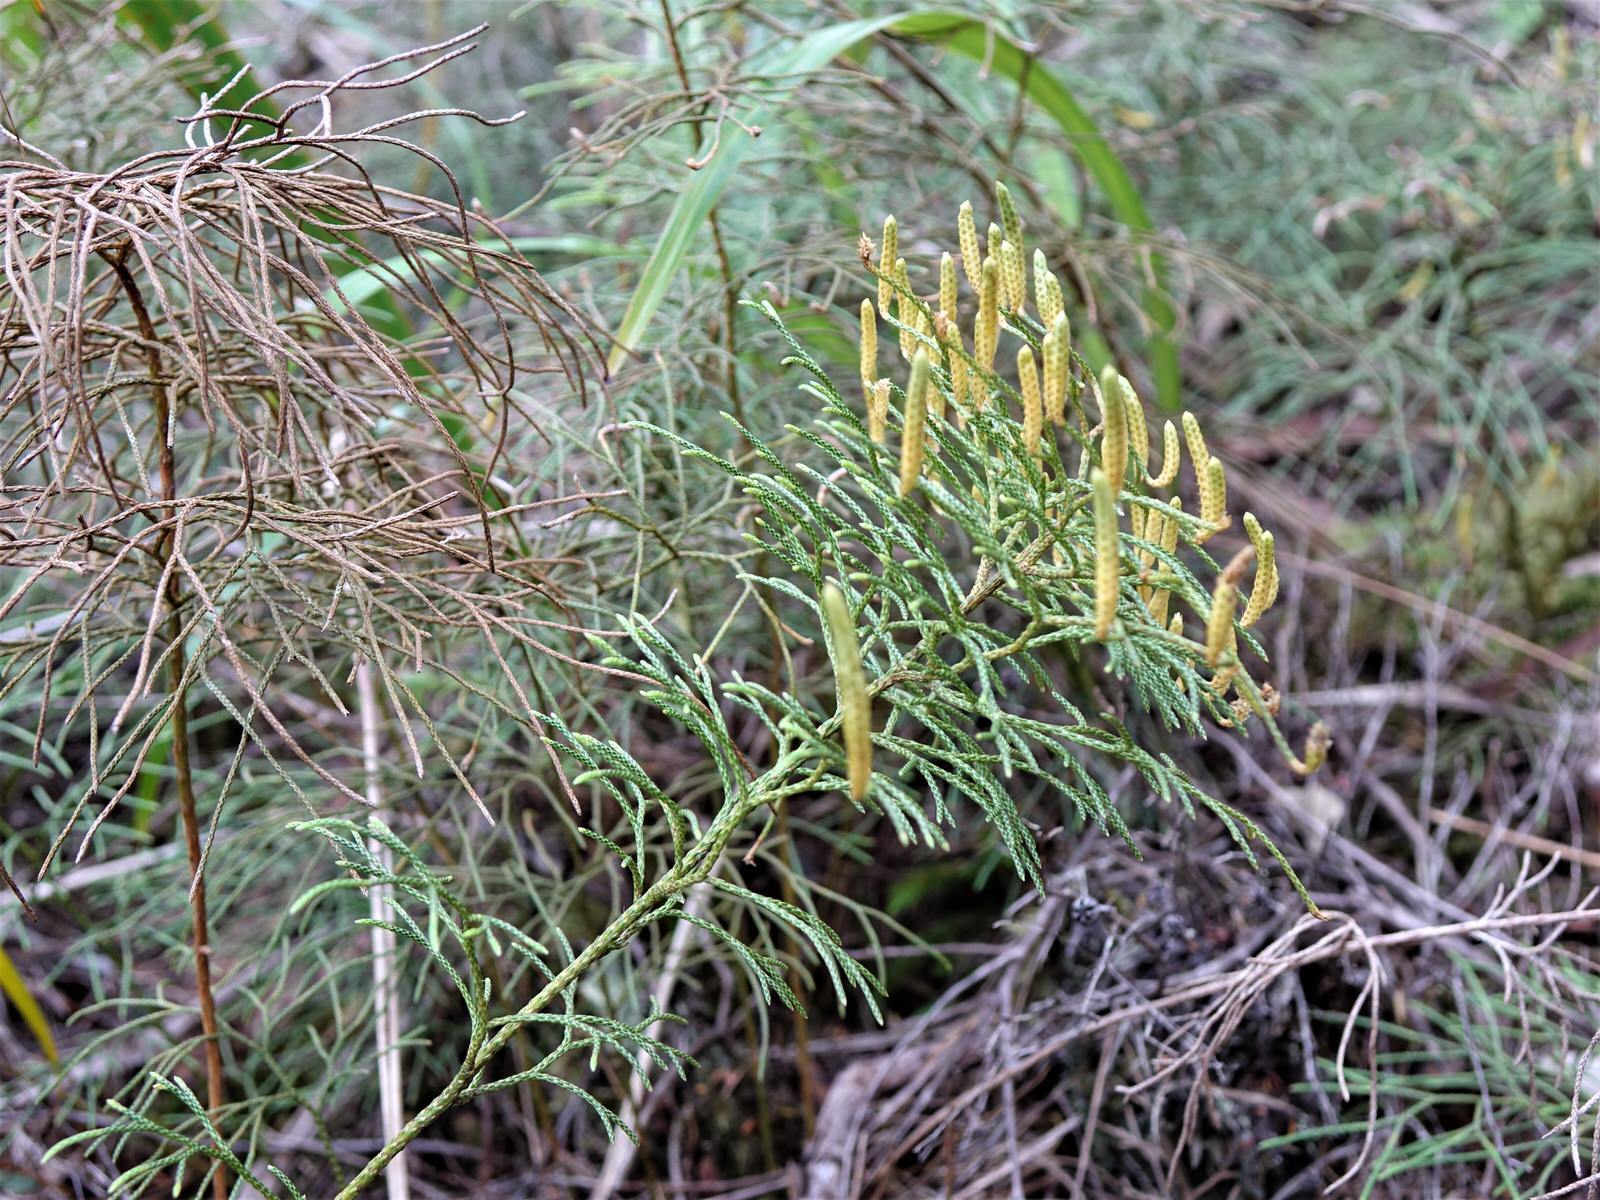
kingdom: Plantae
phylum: Tracheophyta
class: Lycopodiopsida
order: Lycopodiales
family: Lycopodiaceae
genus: Pseudolycopodium
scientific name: Pseudolycopodium densum
